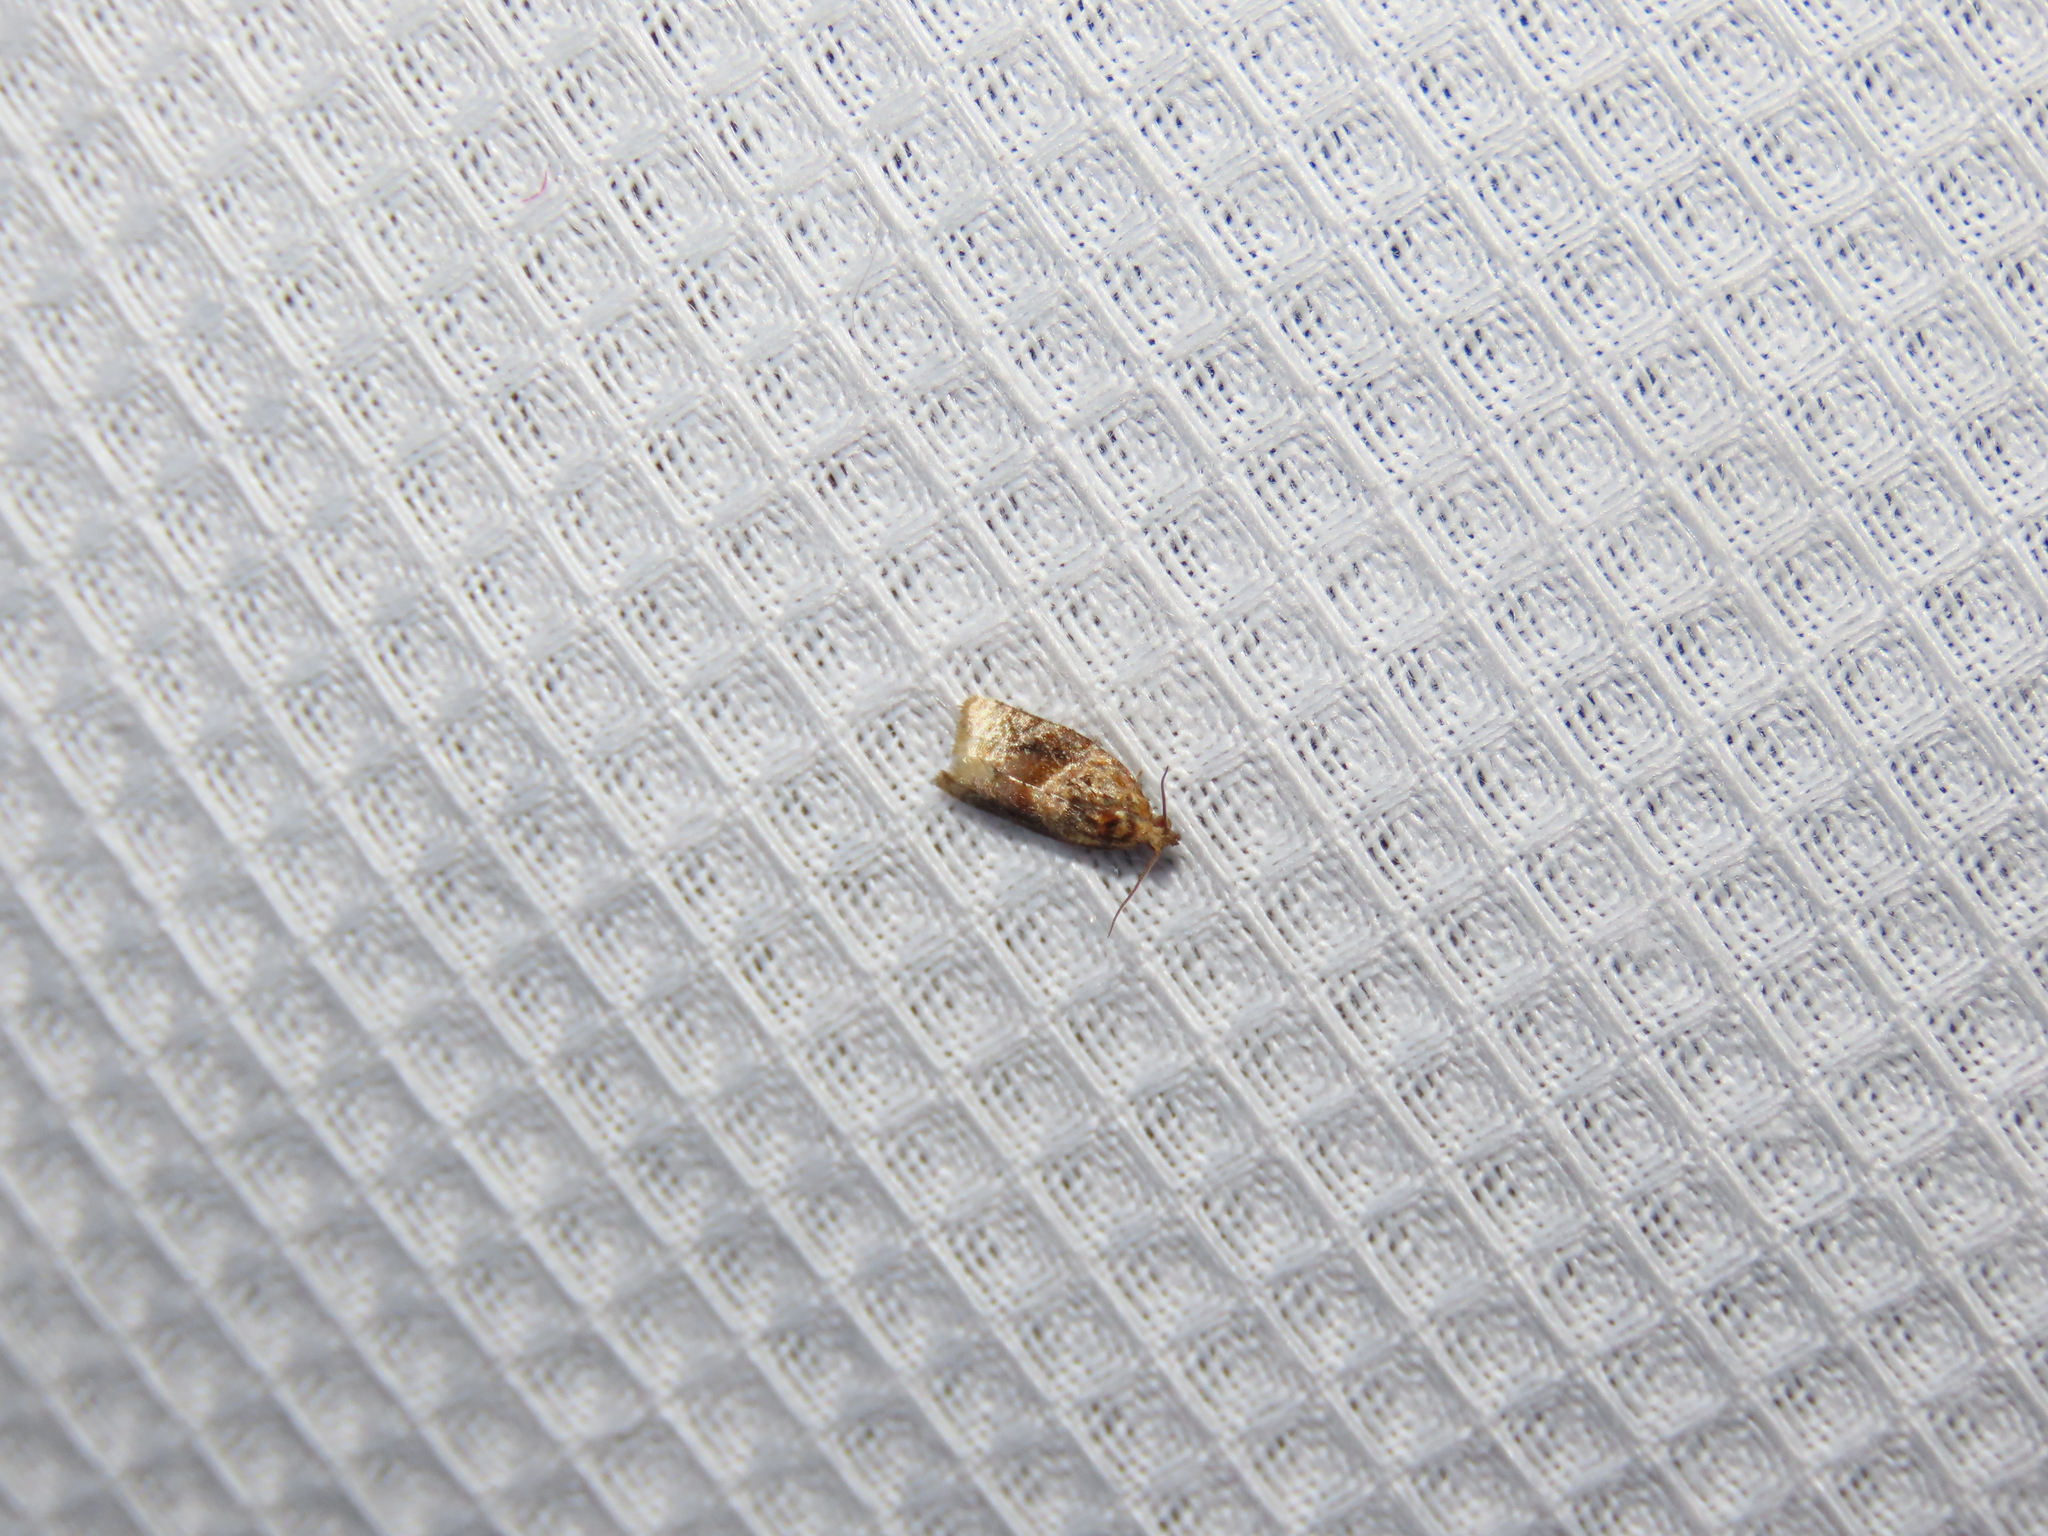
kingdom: Animalia
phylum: Arthropoda
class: Insecta
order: Lepidoptera
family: Tortricidae
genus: Argyrotaenia
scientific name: Argyrotaenia velutinana
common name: Red-banded leafroller moth
